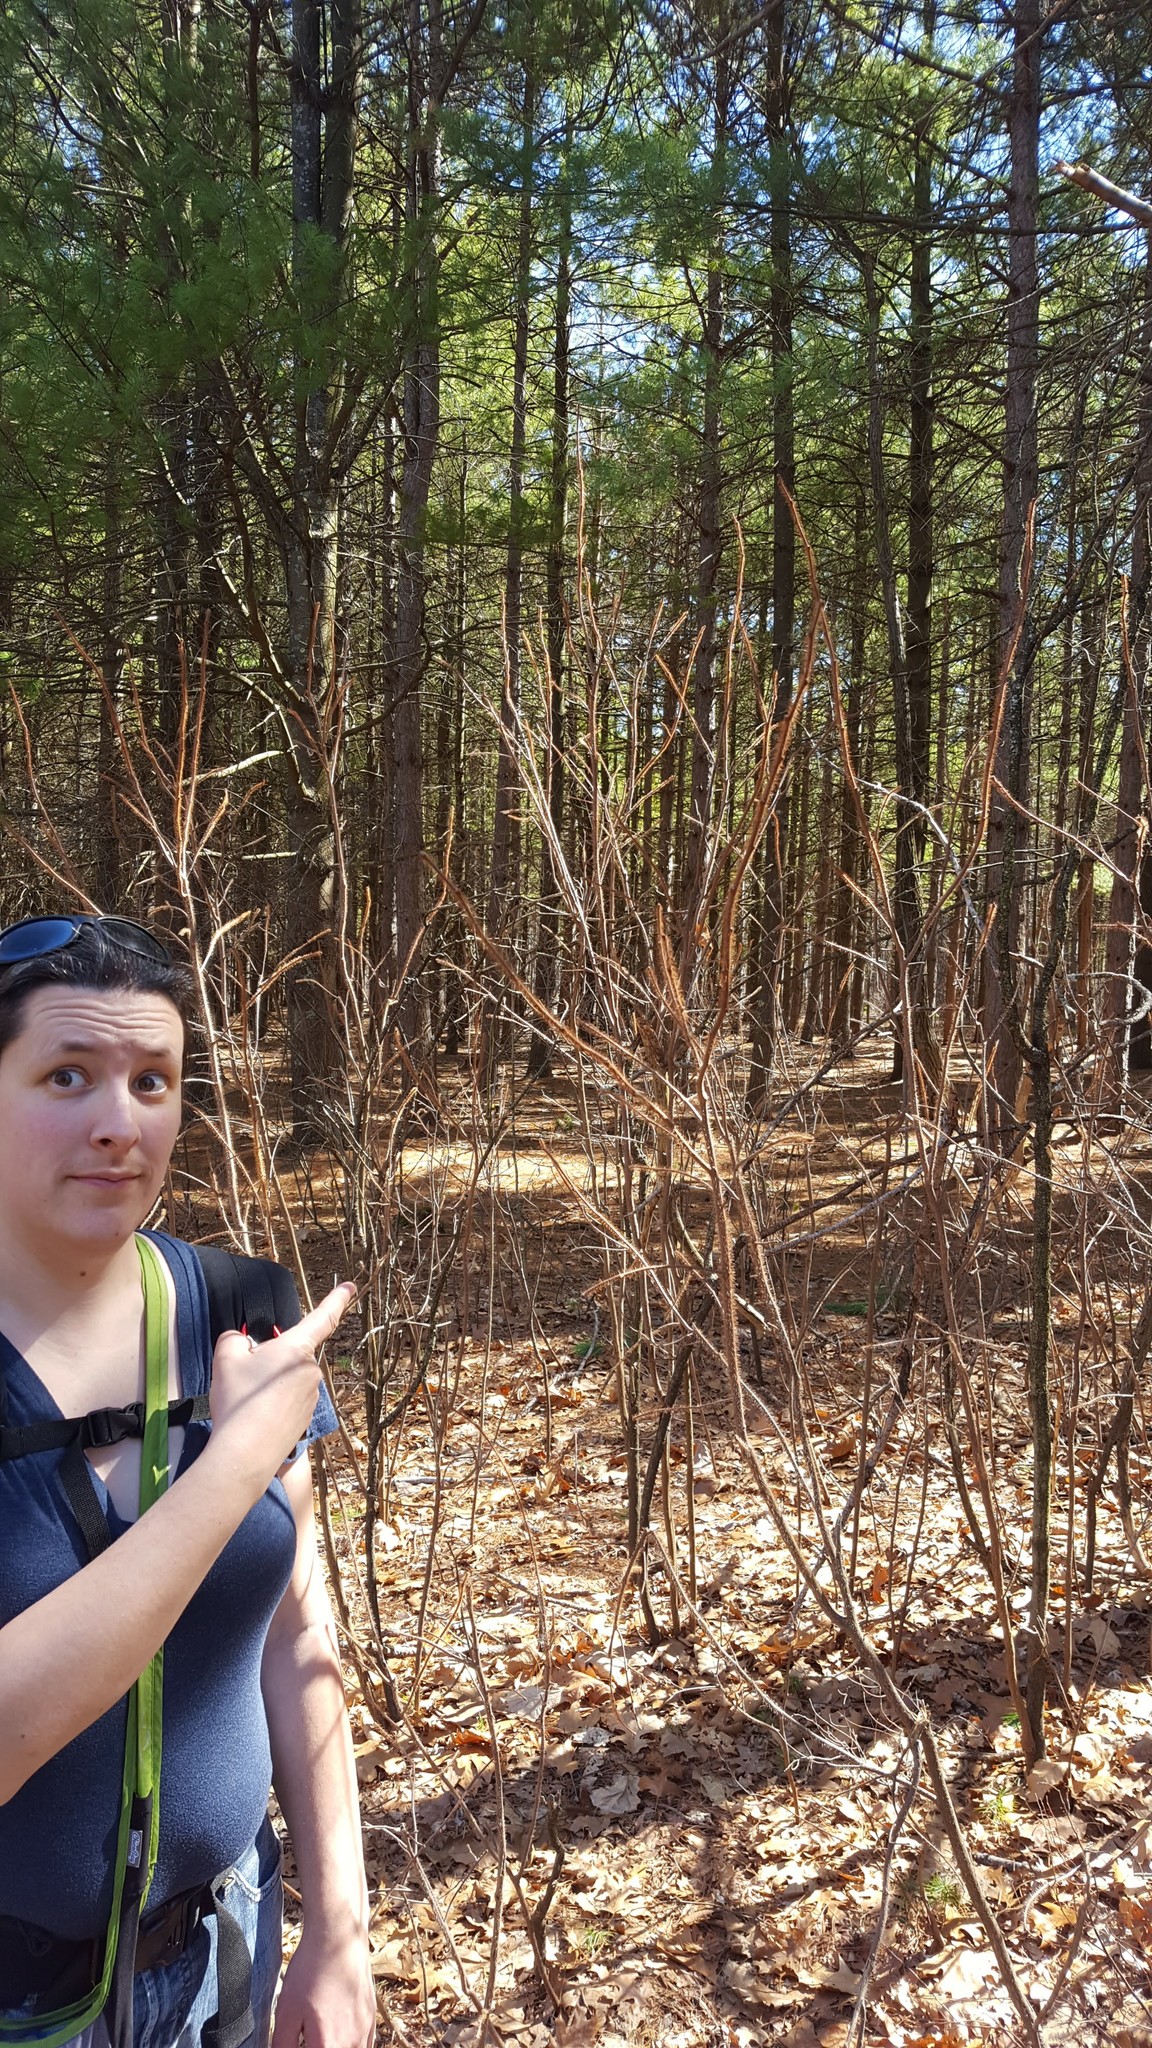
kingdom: Plantae
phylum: Tracheophyta
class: Magnoliopsida
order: Fabales
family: Fabaceae
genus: Robinia
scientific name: Robinia hispida
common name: Bristly locust
